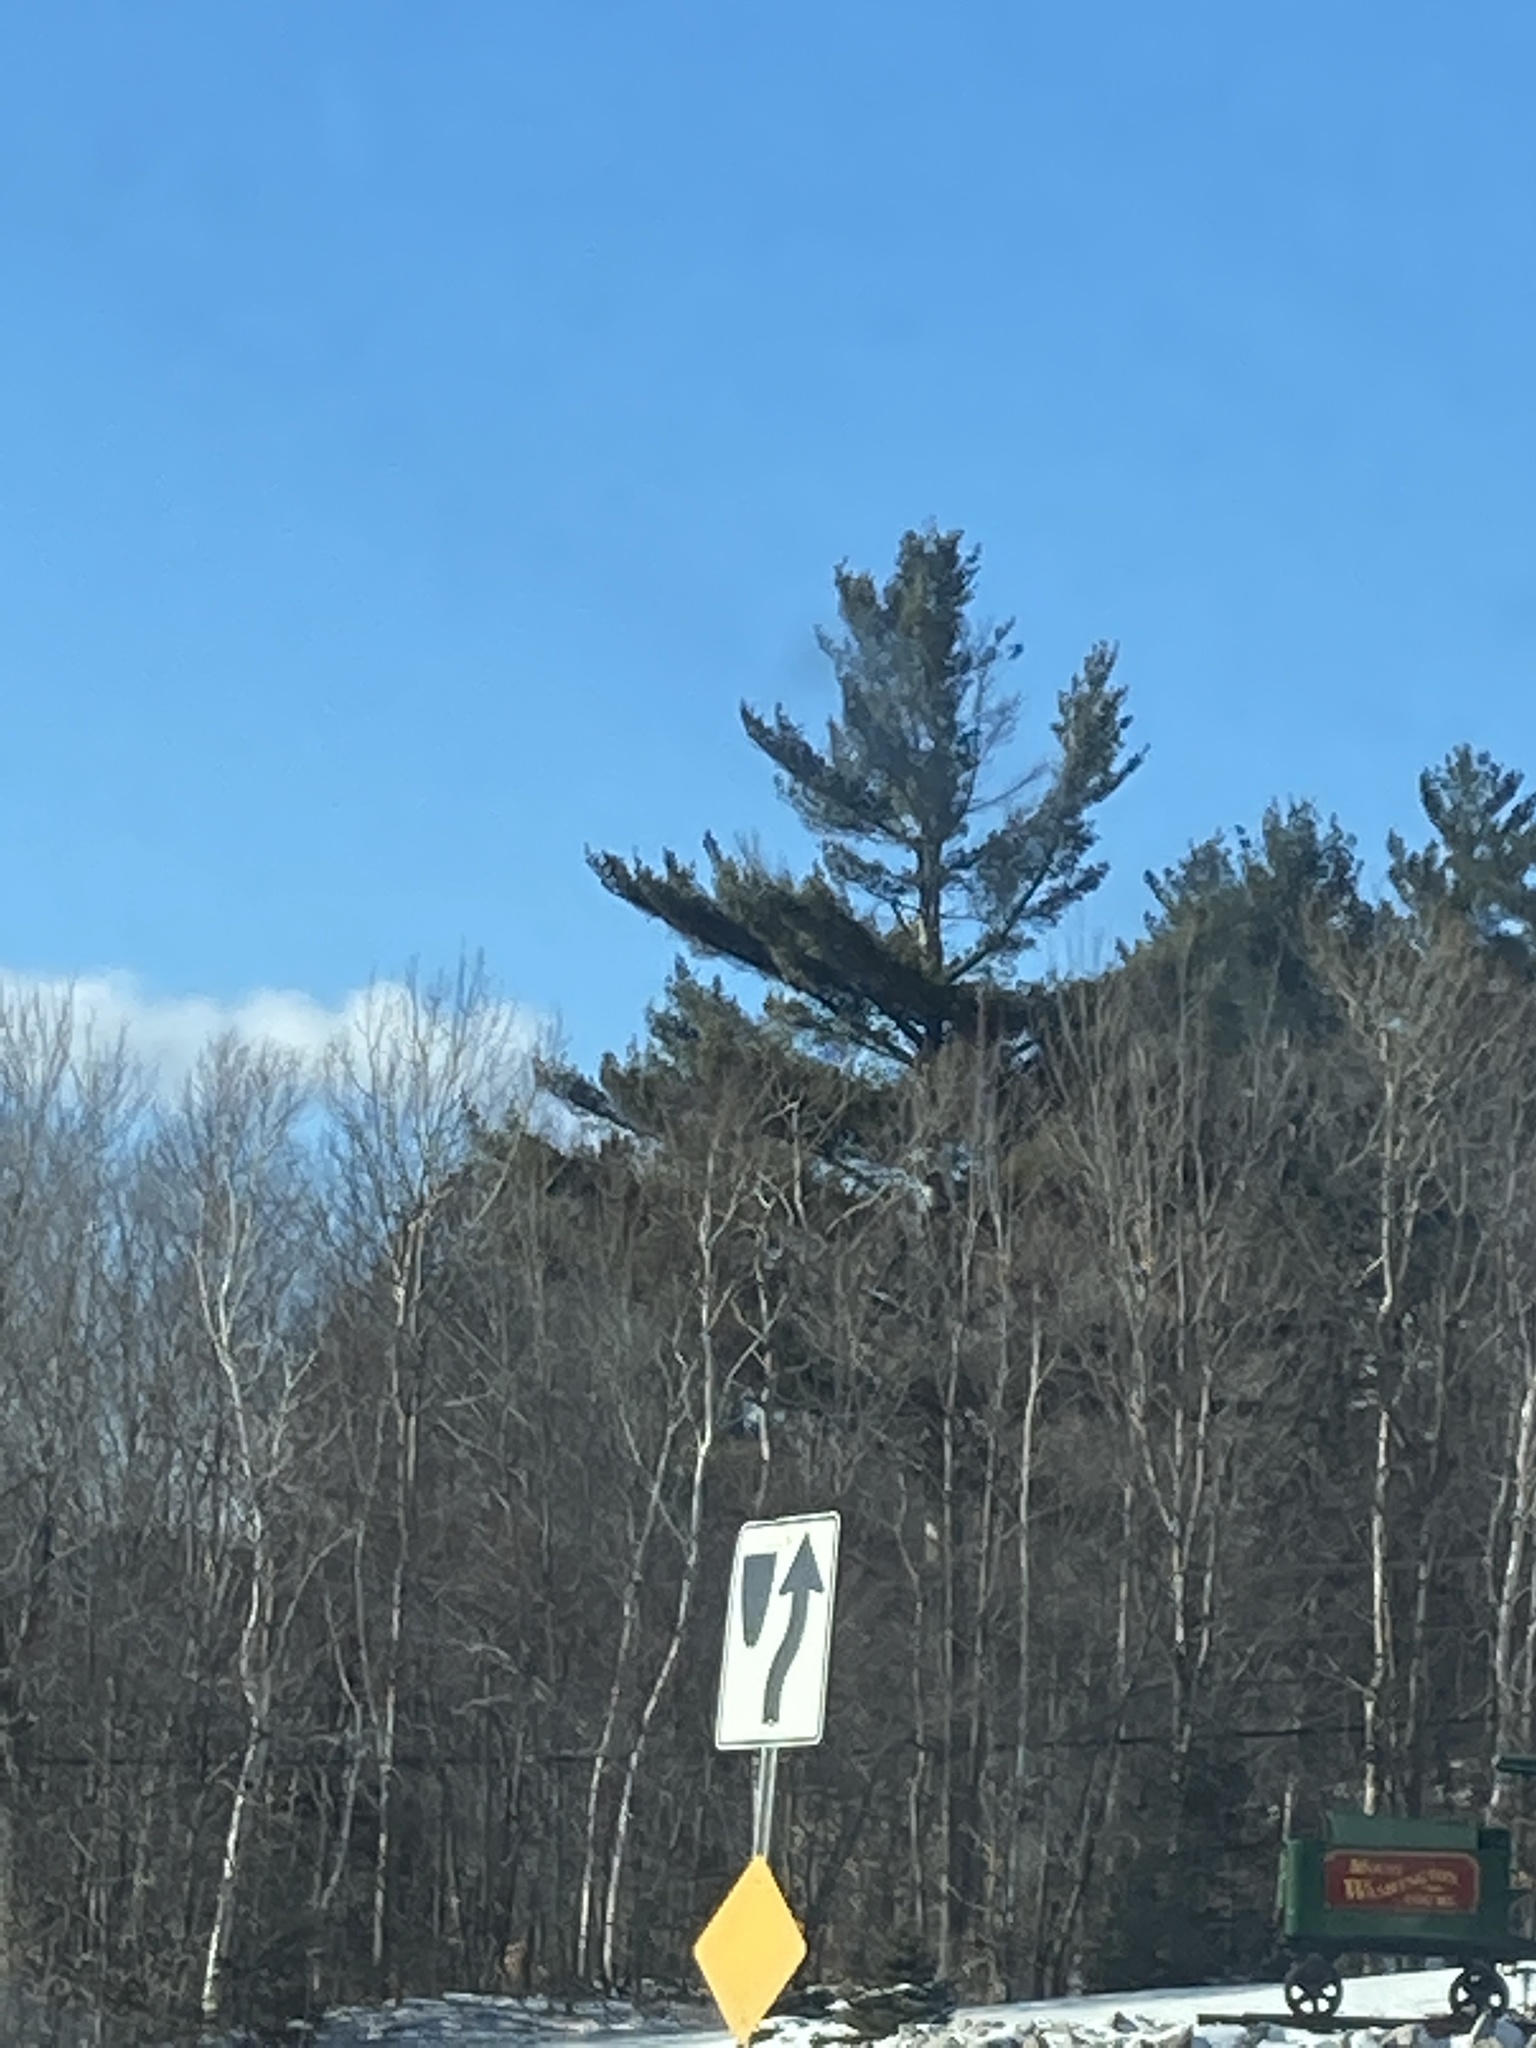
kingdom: Plantae
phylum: Tracheophyta
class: Pinopsida
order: Pinales
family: Pinaceae
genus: Pinus
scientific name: Pinus strobus
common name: Weymouth pine
